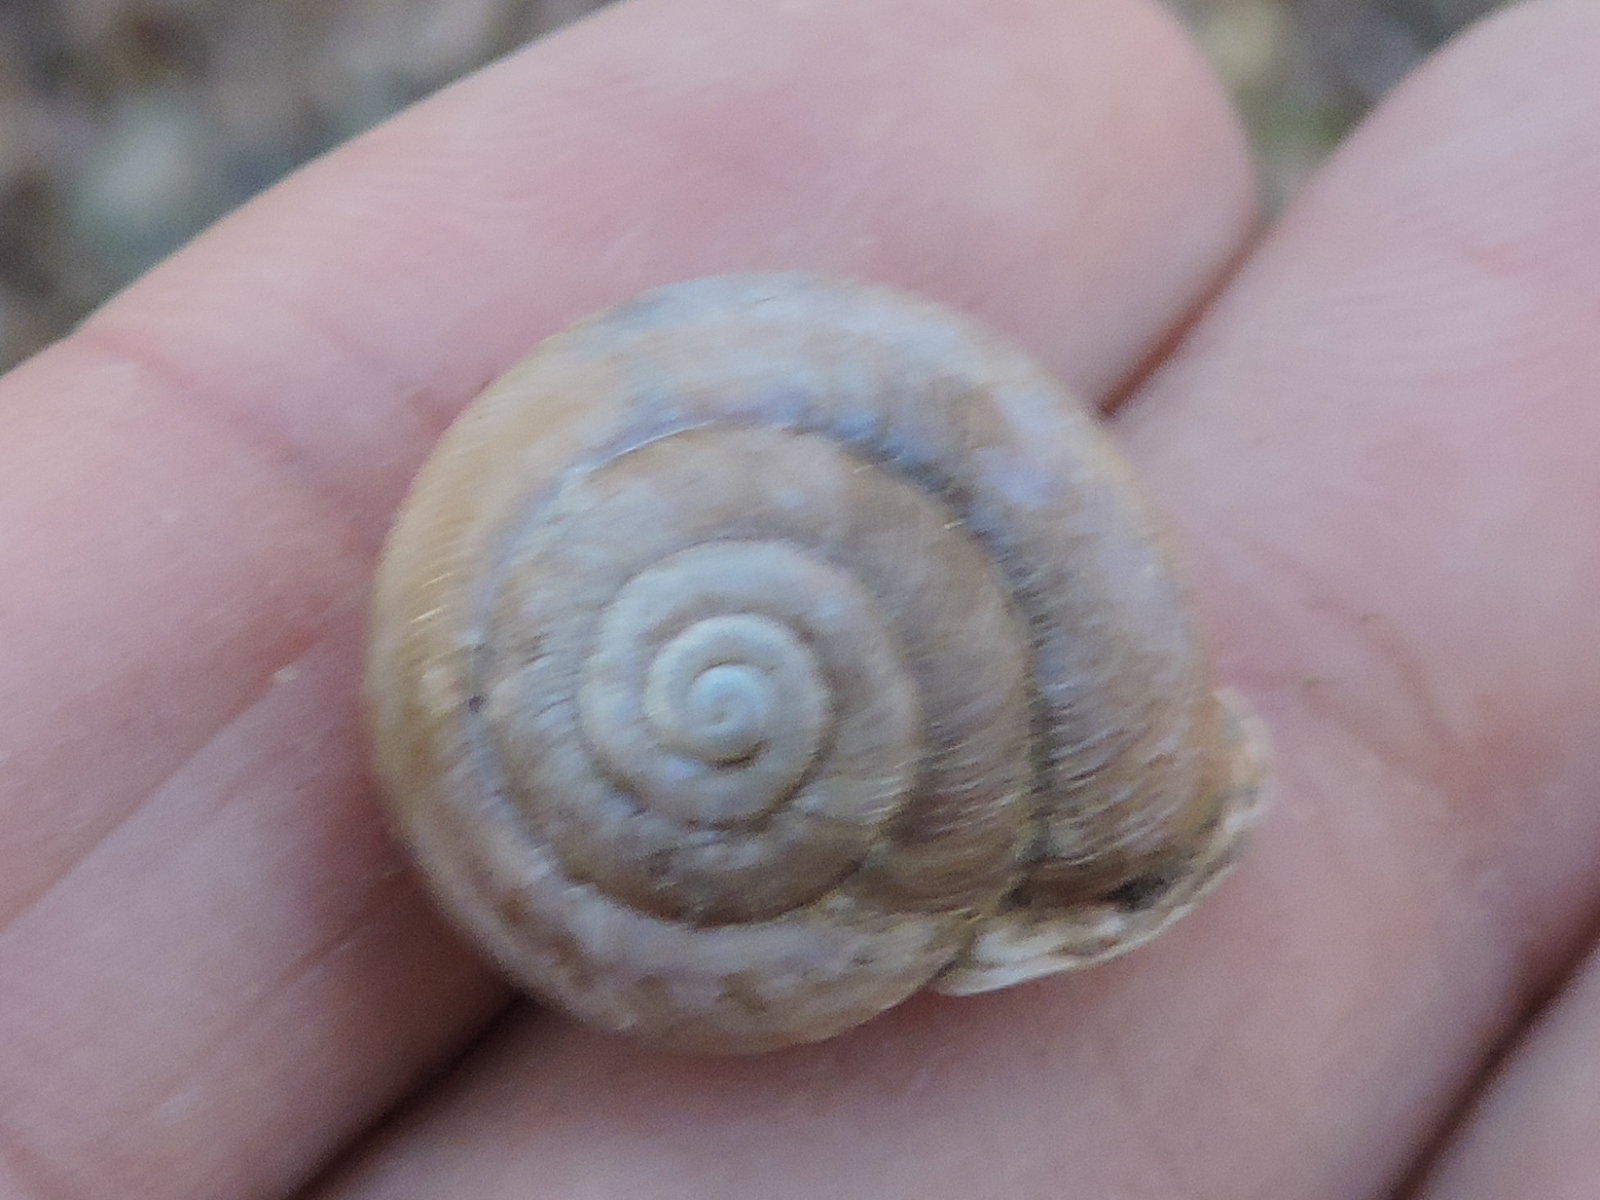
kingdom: Animalia
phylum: Mollusca
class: Gastropoda
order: Stylommatophora
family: Polygyridae
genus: Patera
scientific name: Patera roemeri
